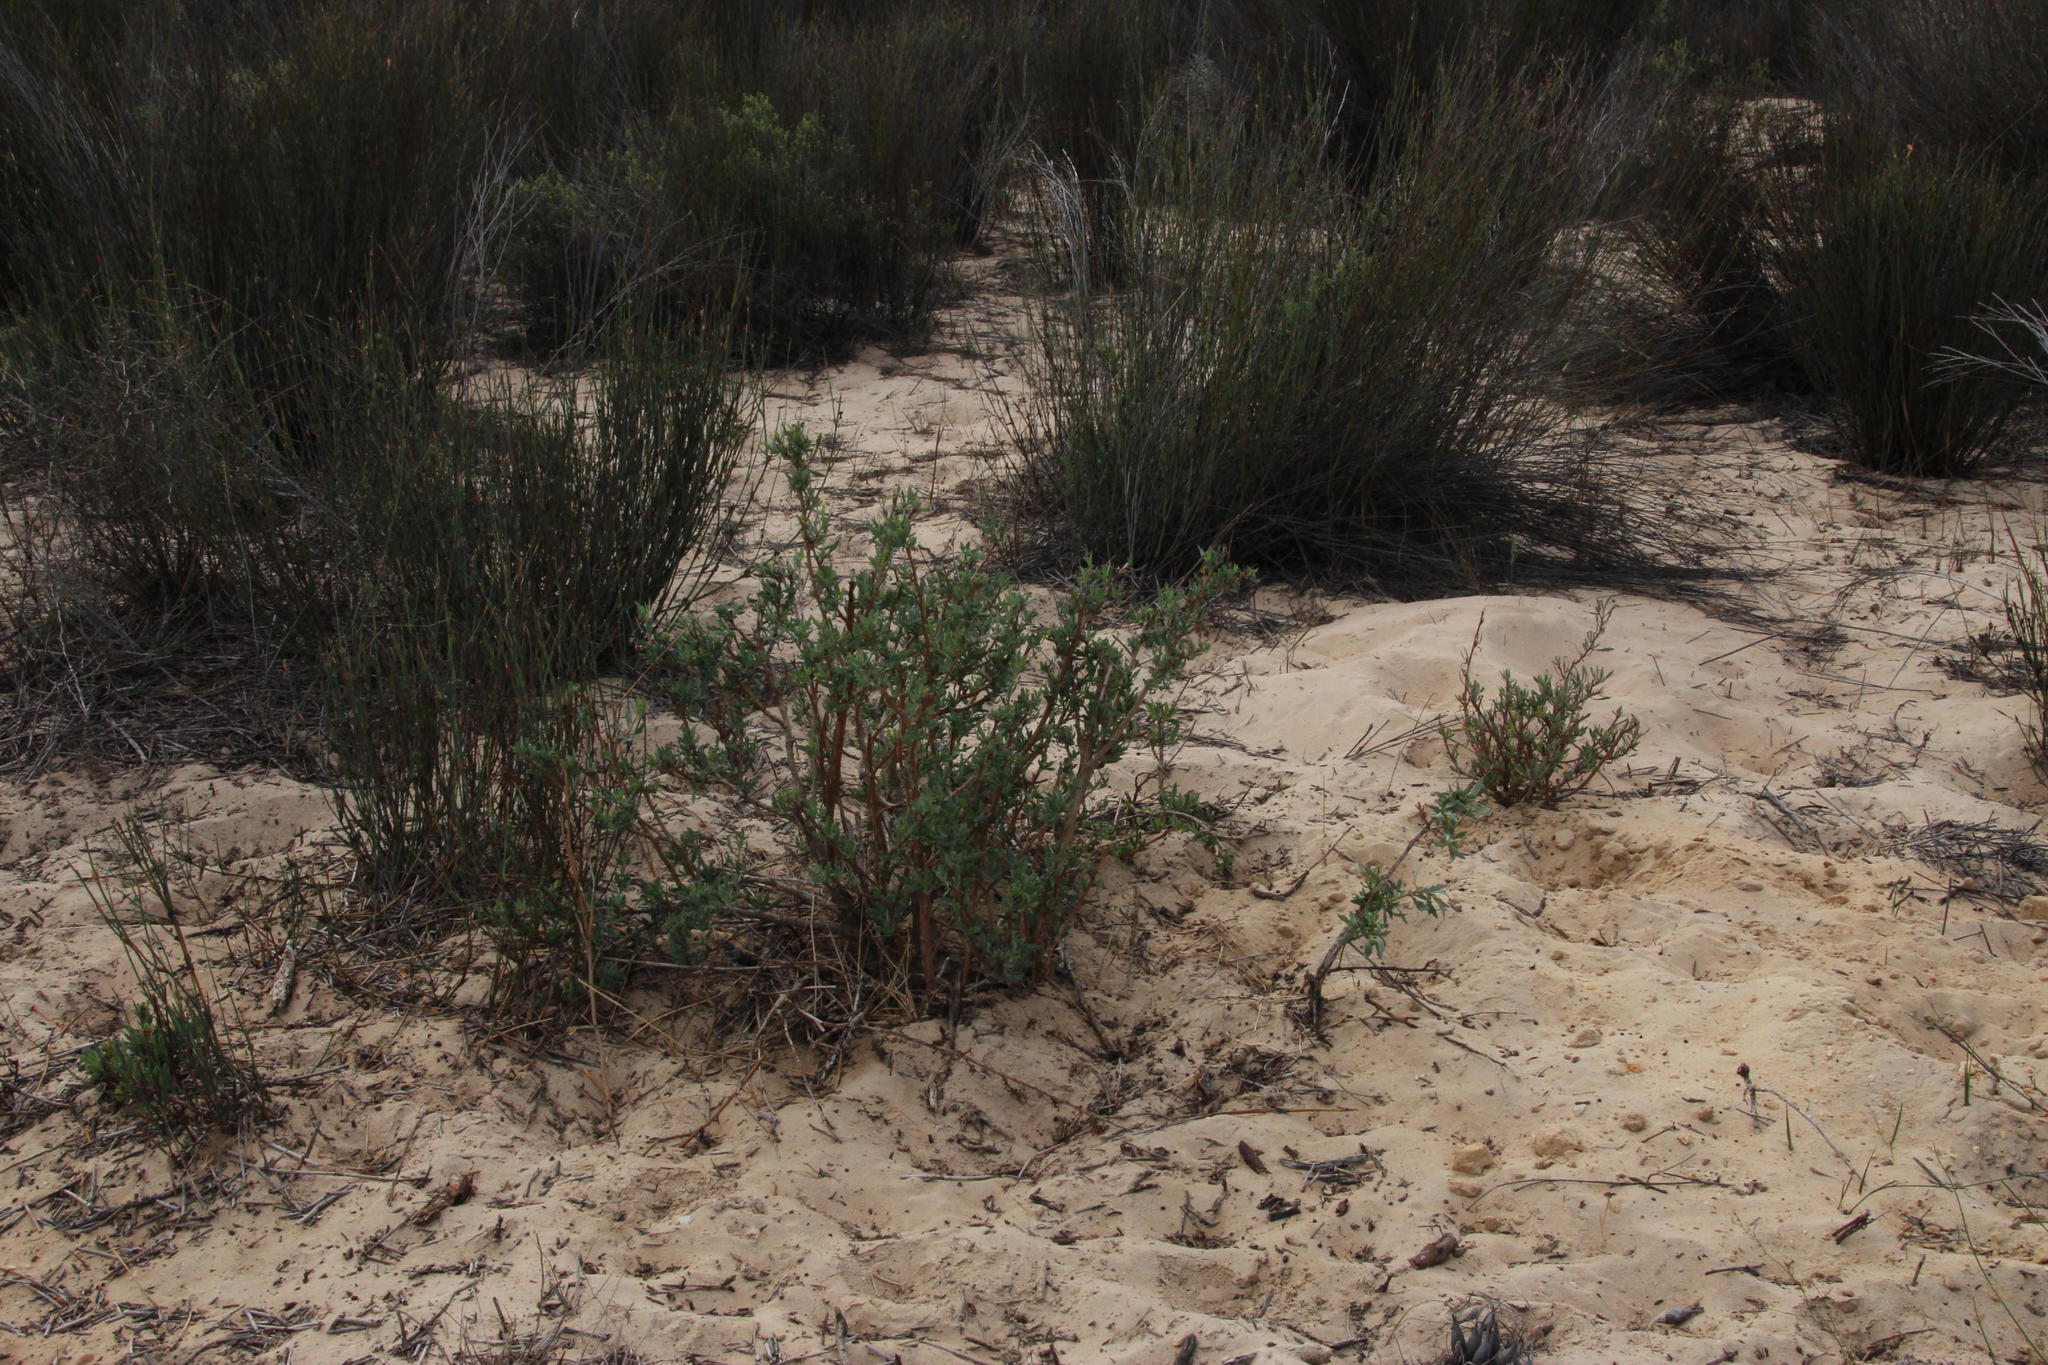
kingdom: Plantae
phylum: Tracheophyta
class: Magnoliopsida
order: Asterales
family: Asteraceae
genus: Othonna
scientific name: Othonna coronopifolia
